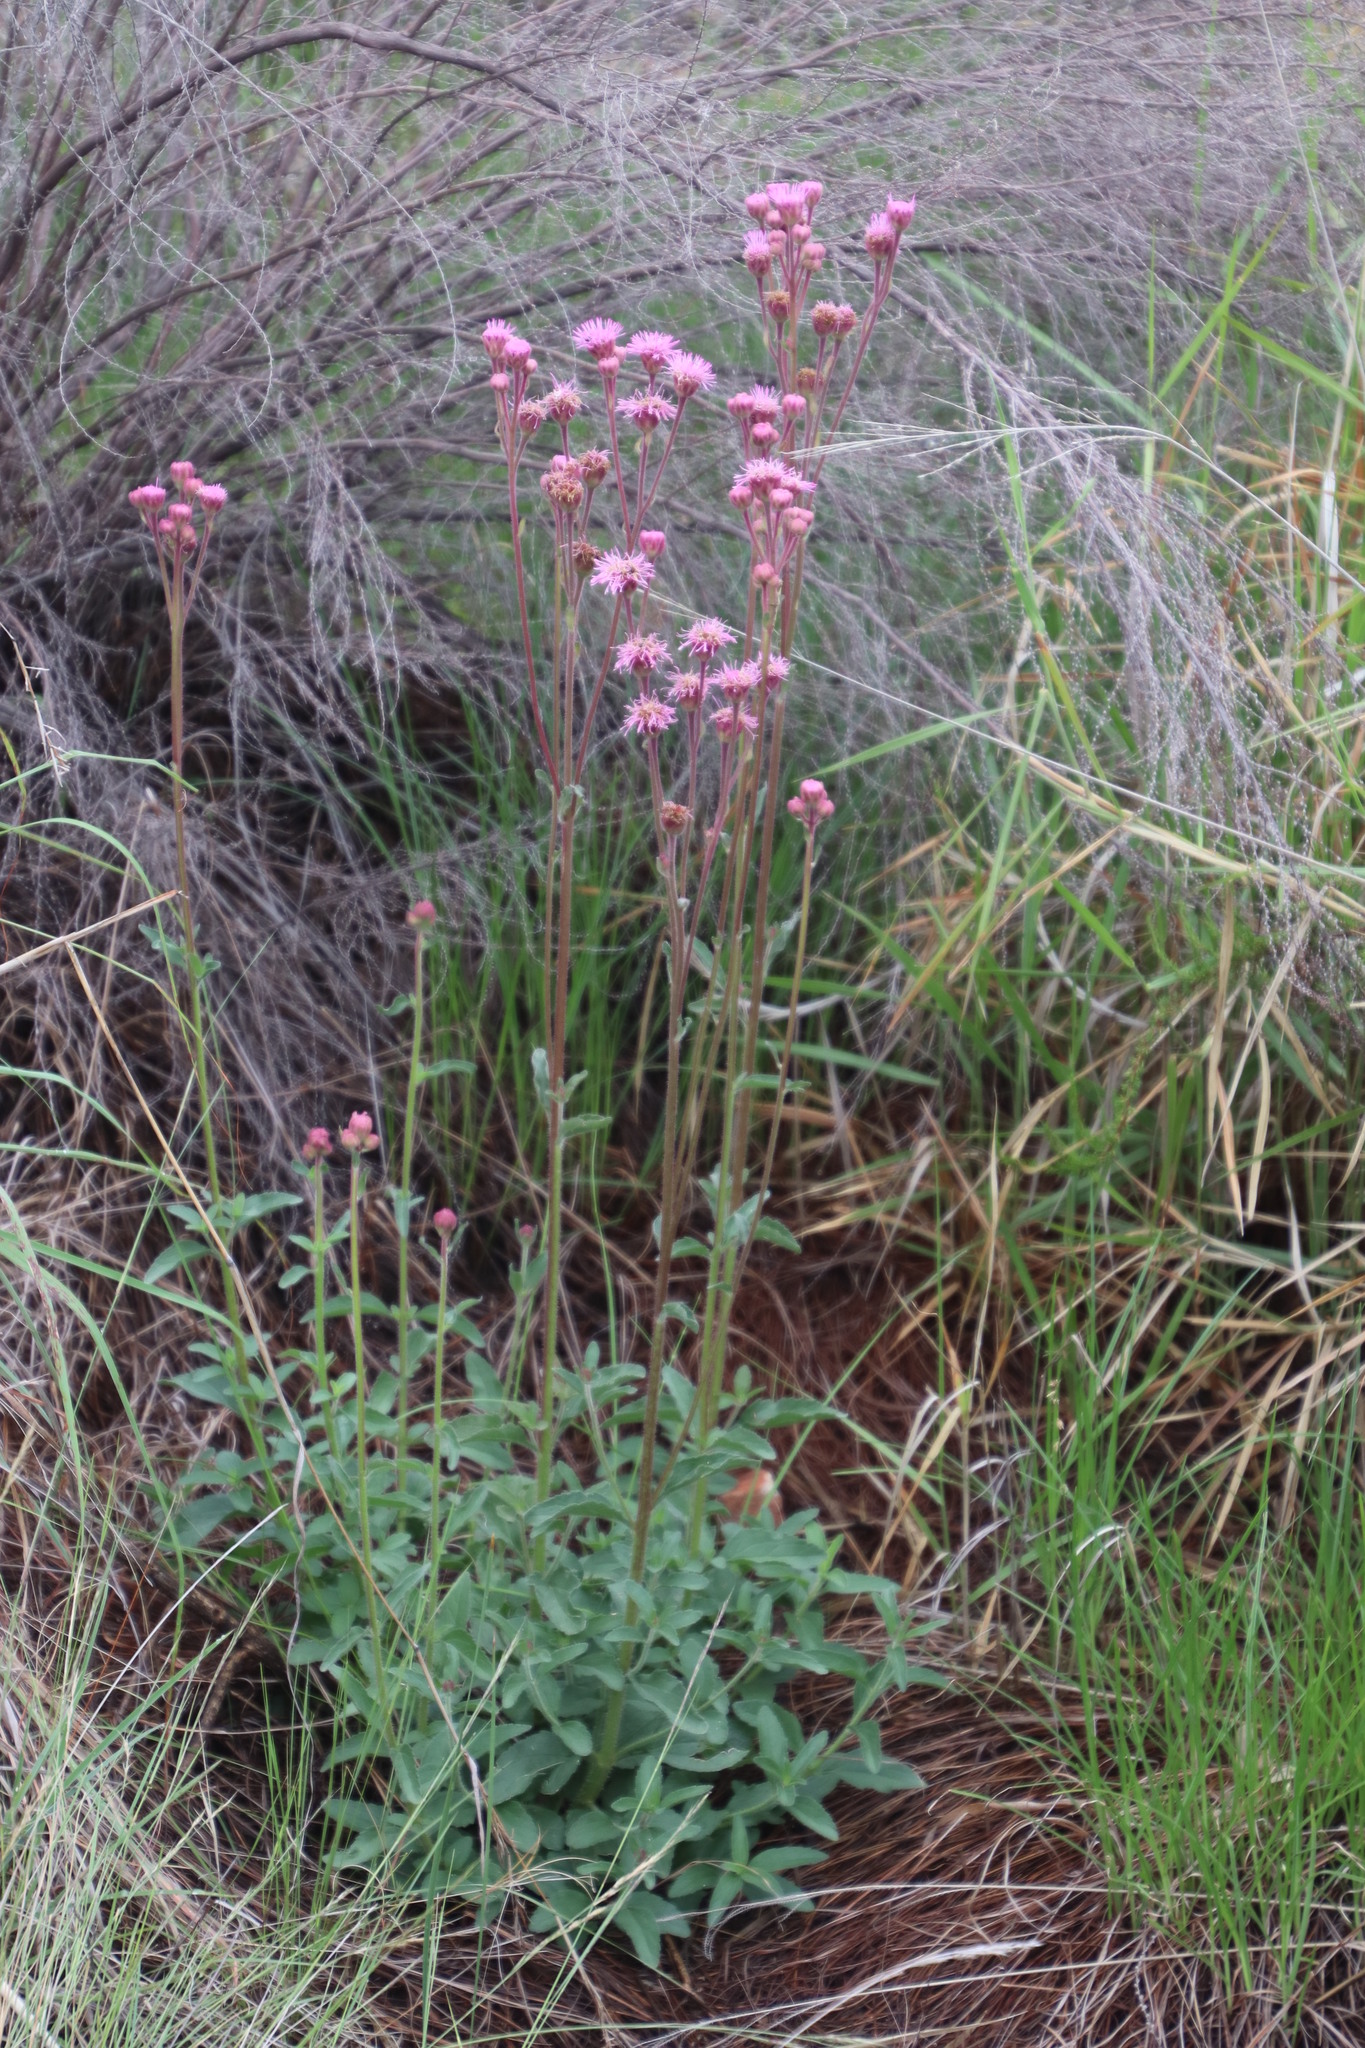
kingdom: Plantae
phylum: Tracheophyta
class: Magnoliopsida
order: Asterales
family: Asteraceae
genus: Campuloclinium
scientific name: Campuloclinium macrocephalum
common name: Pompomweed
